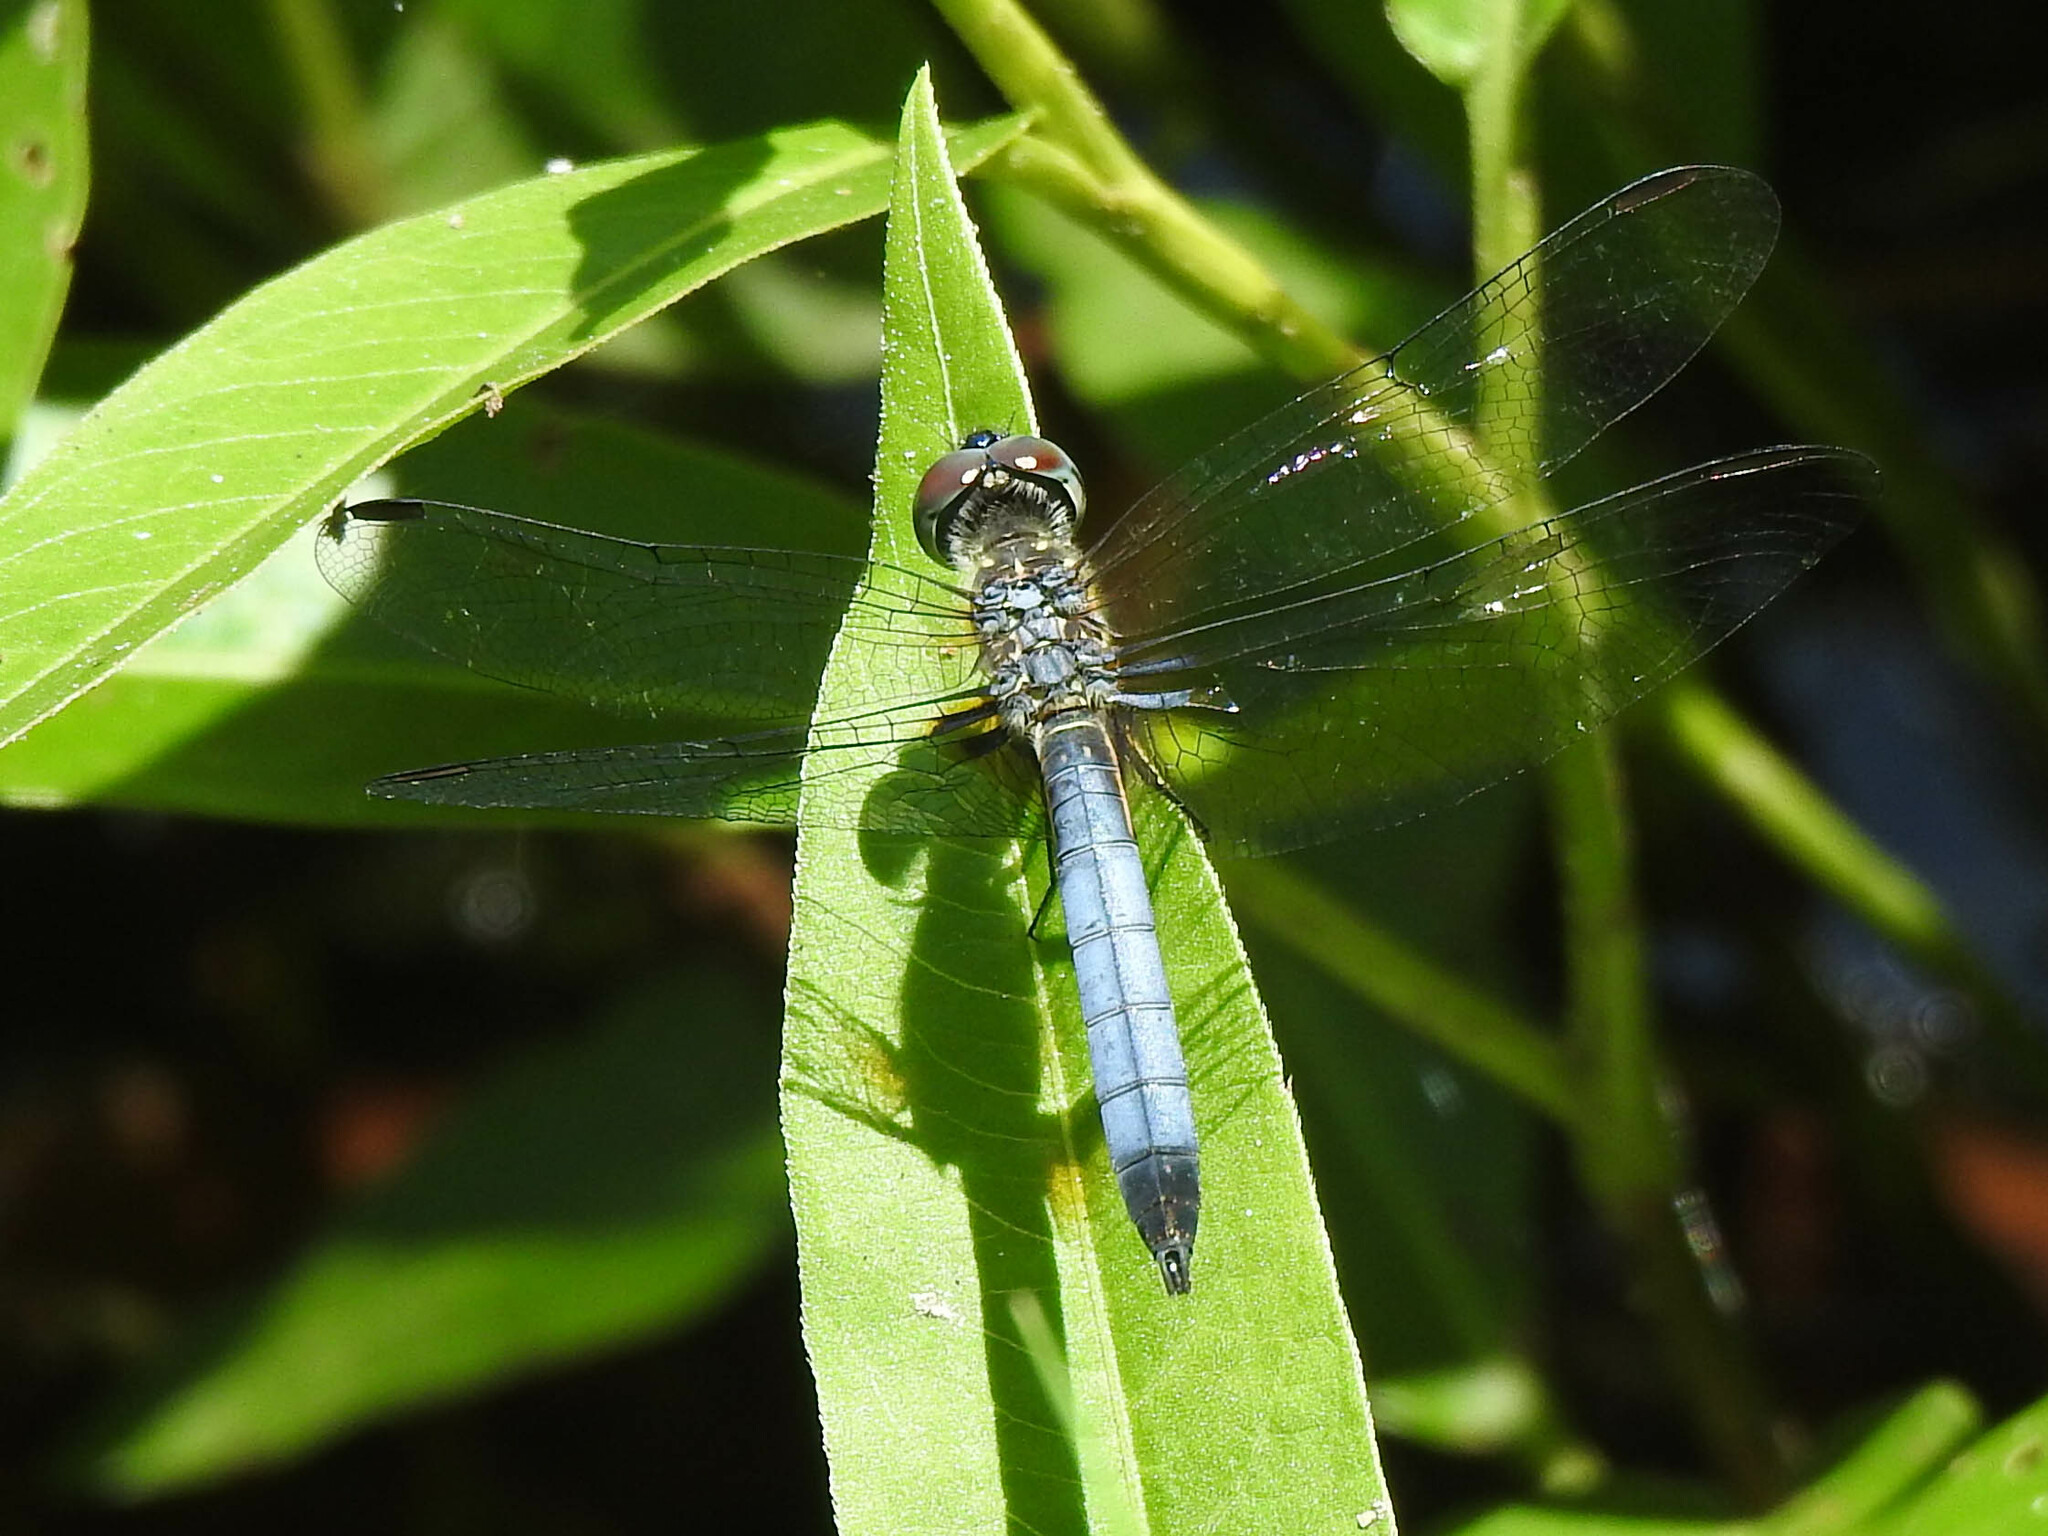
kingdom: Animalia
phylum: Arthropoda
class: Insecta
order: Odonata
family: Libellulidae
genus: Pachydiplax
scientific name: Pachydiplax longipennis
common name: Blue dasher
